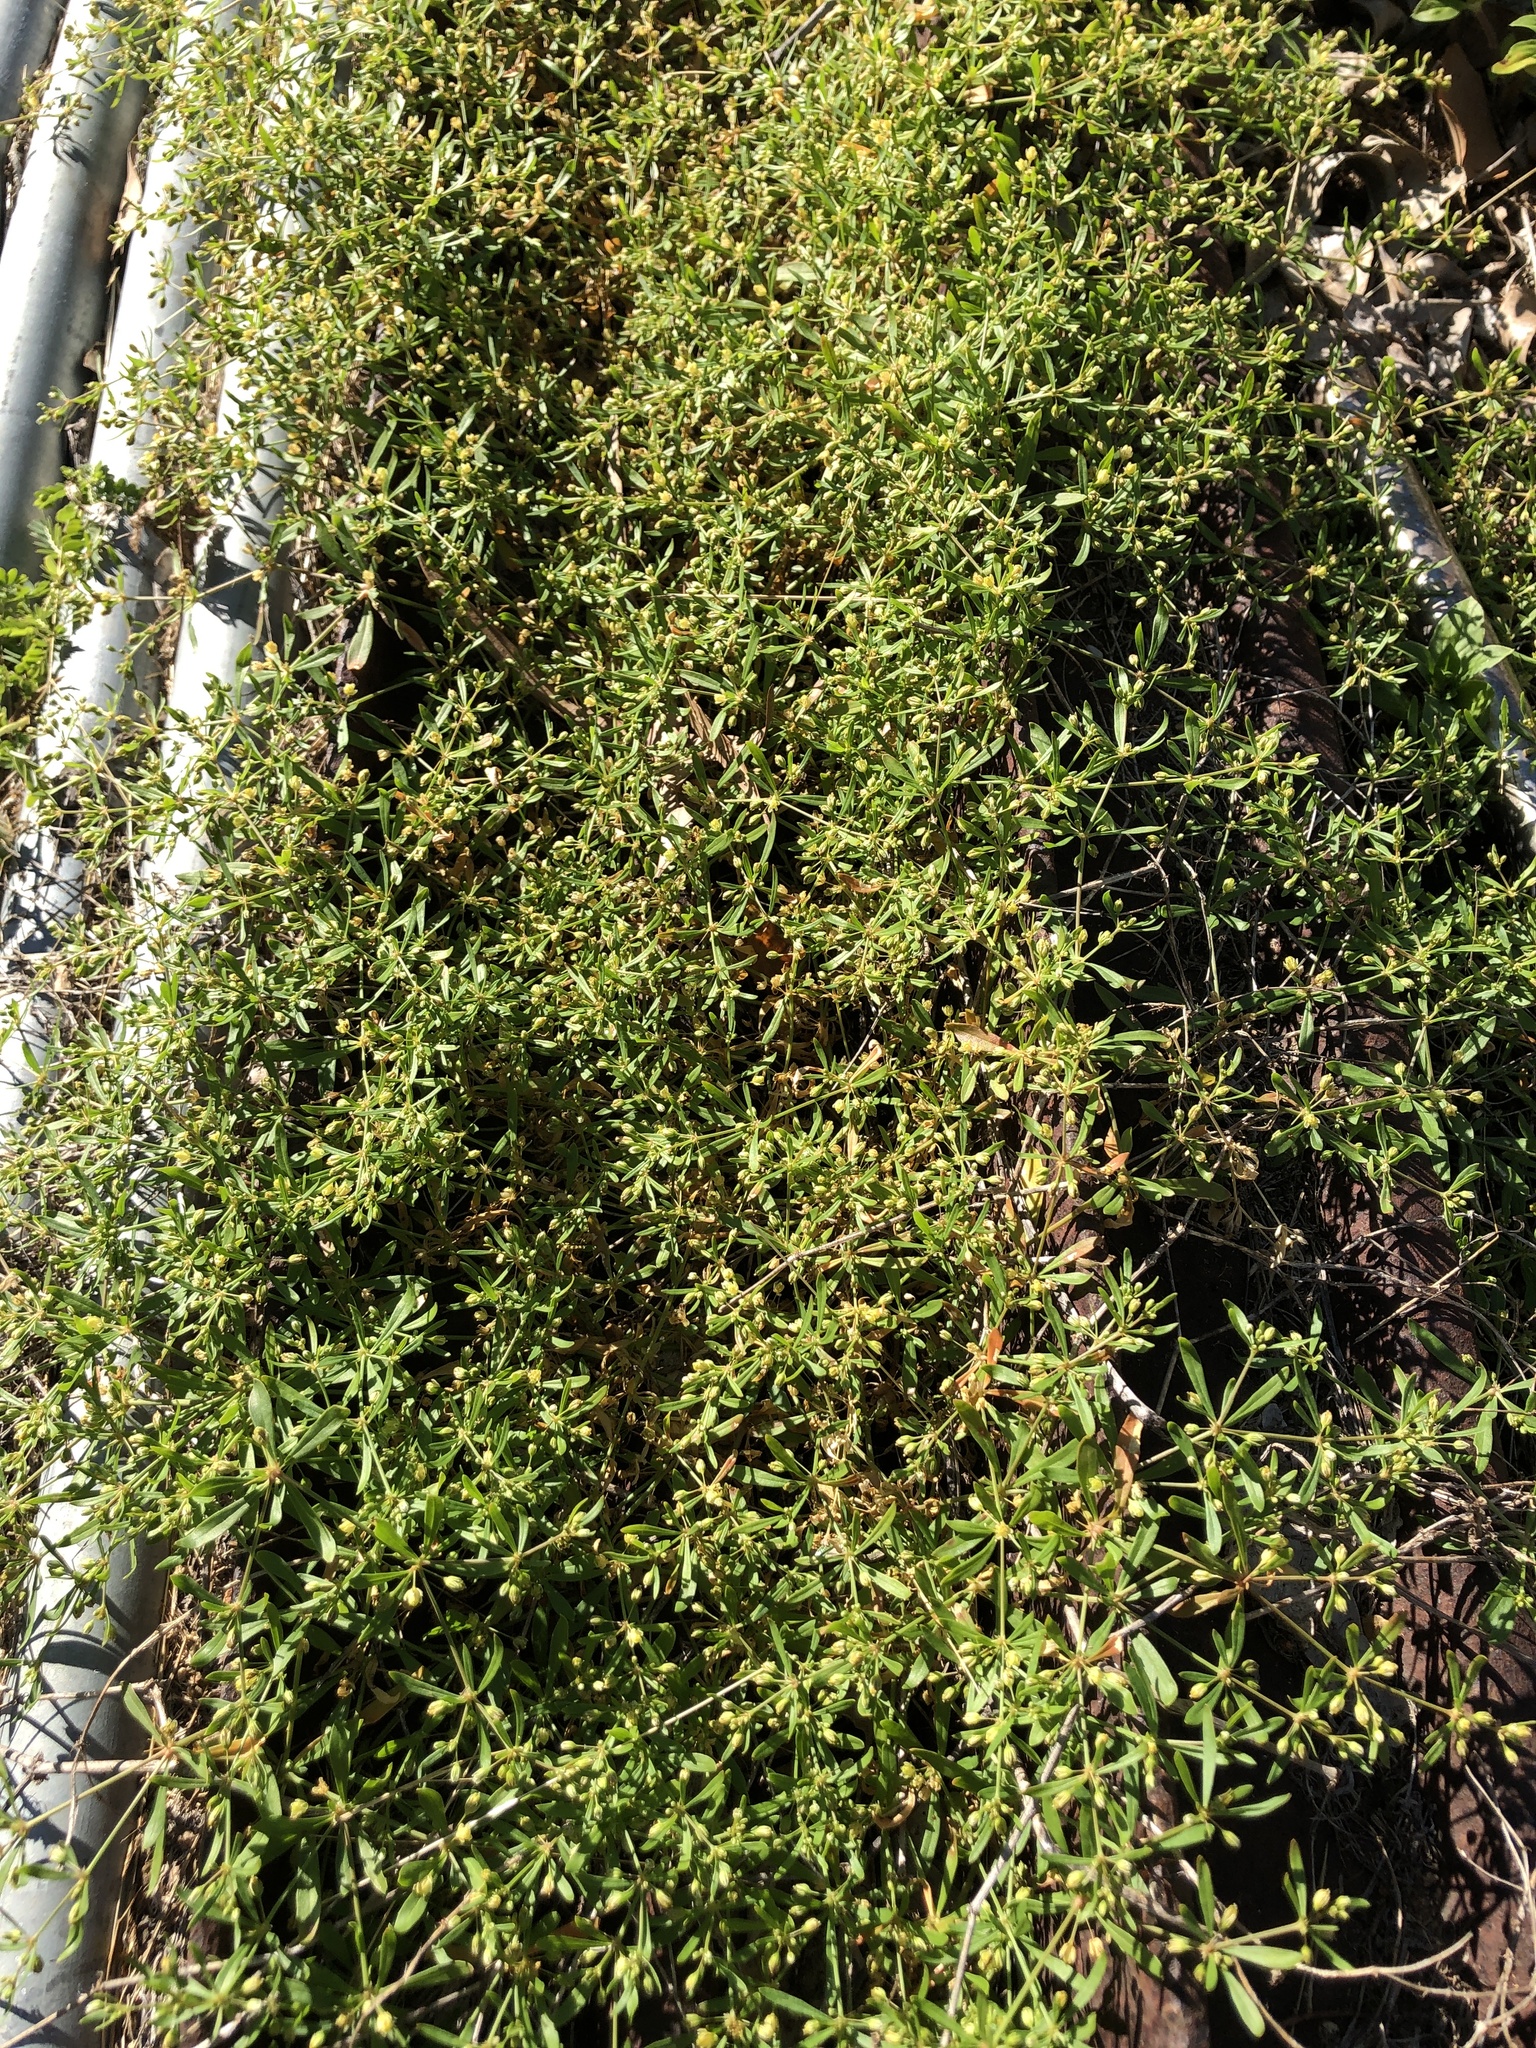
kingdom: Plantae
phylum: Tracheophyta
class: Magnoliopsida
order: Caryophyllales
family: Molluginaceae
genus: Mollugo
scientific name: Mollugo verticillata
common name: Green carpetweed
